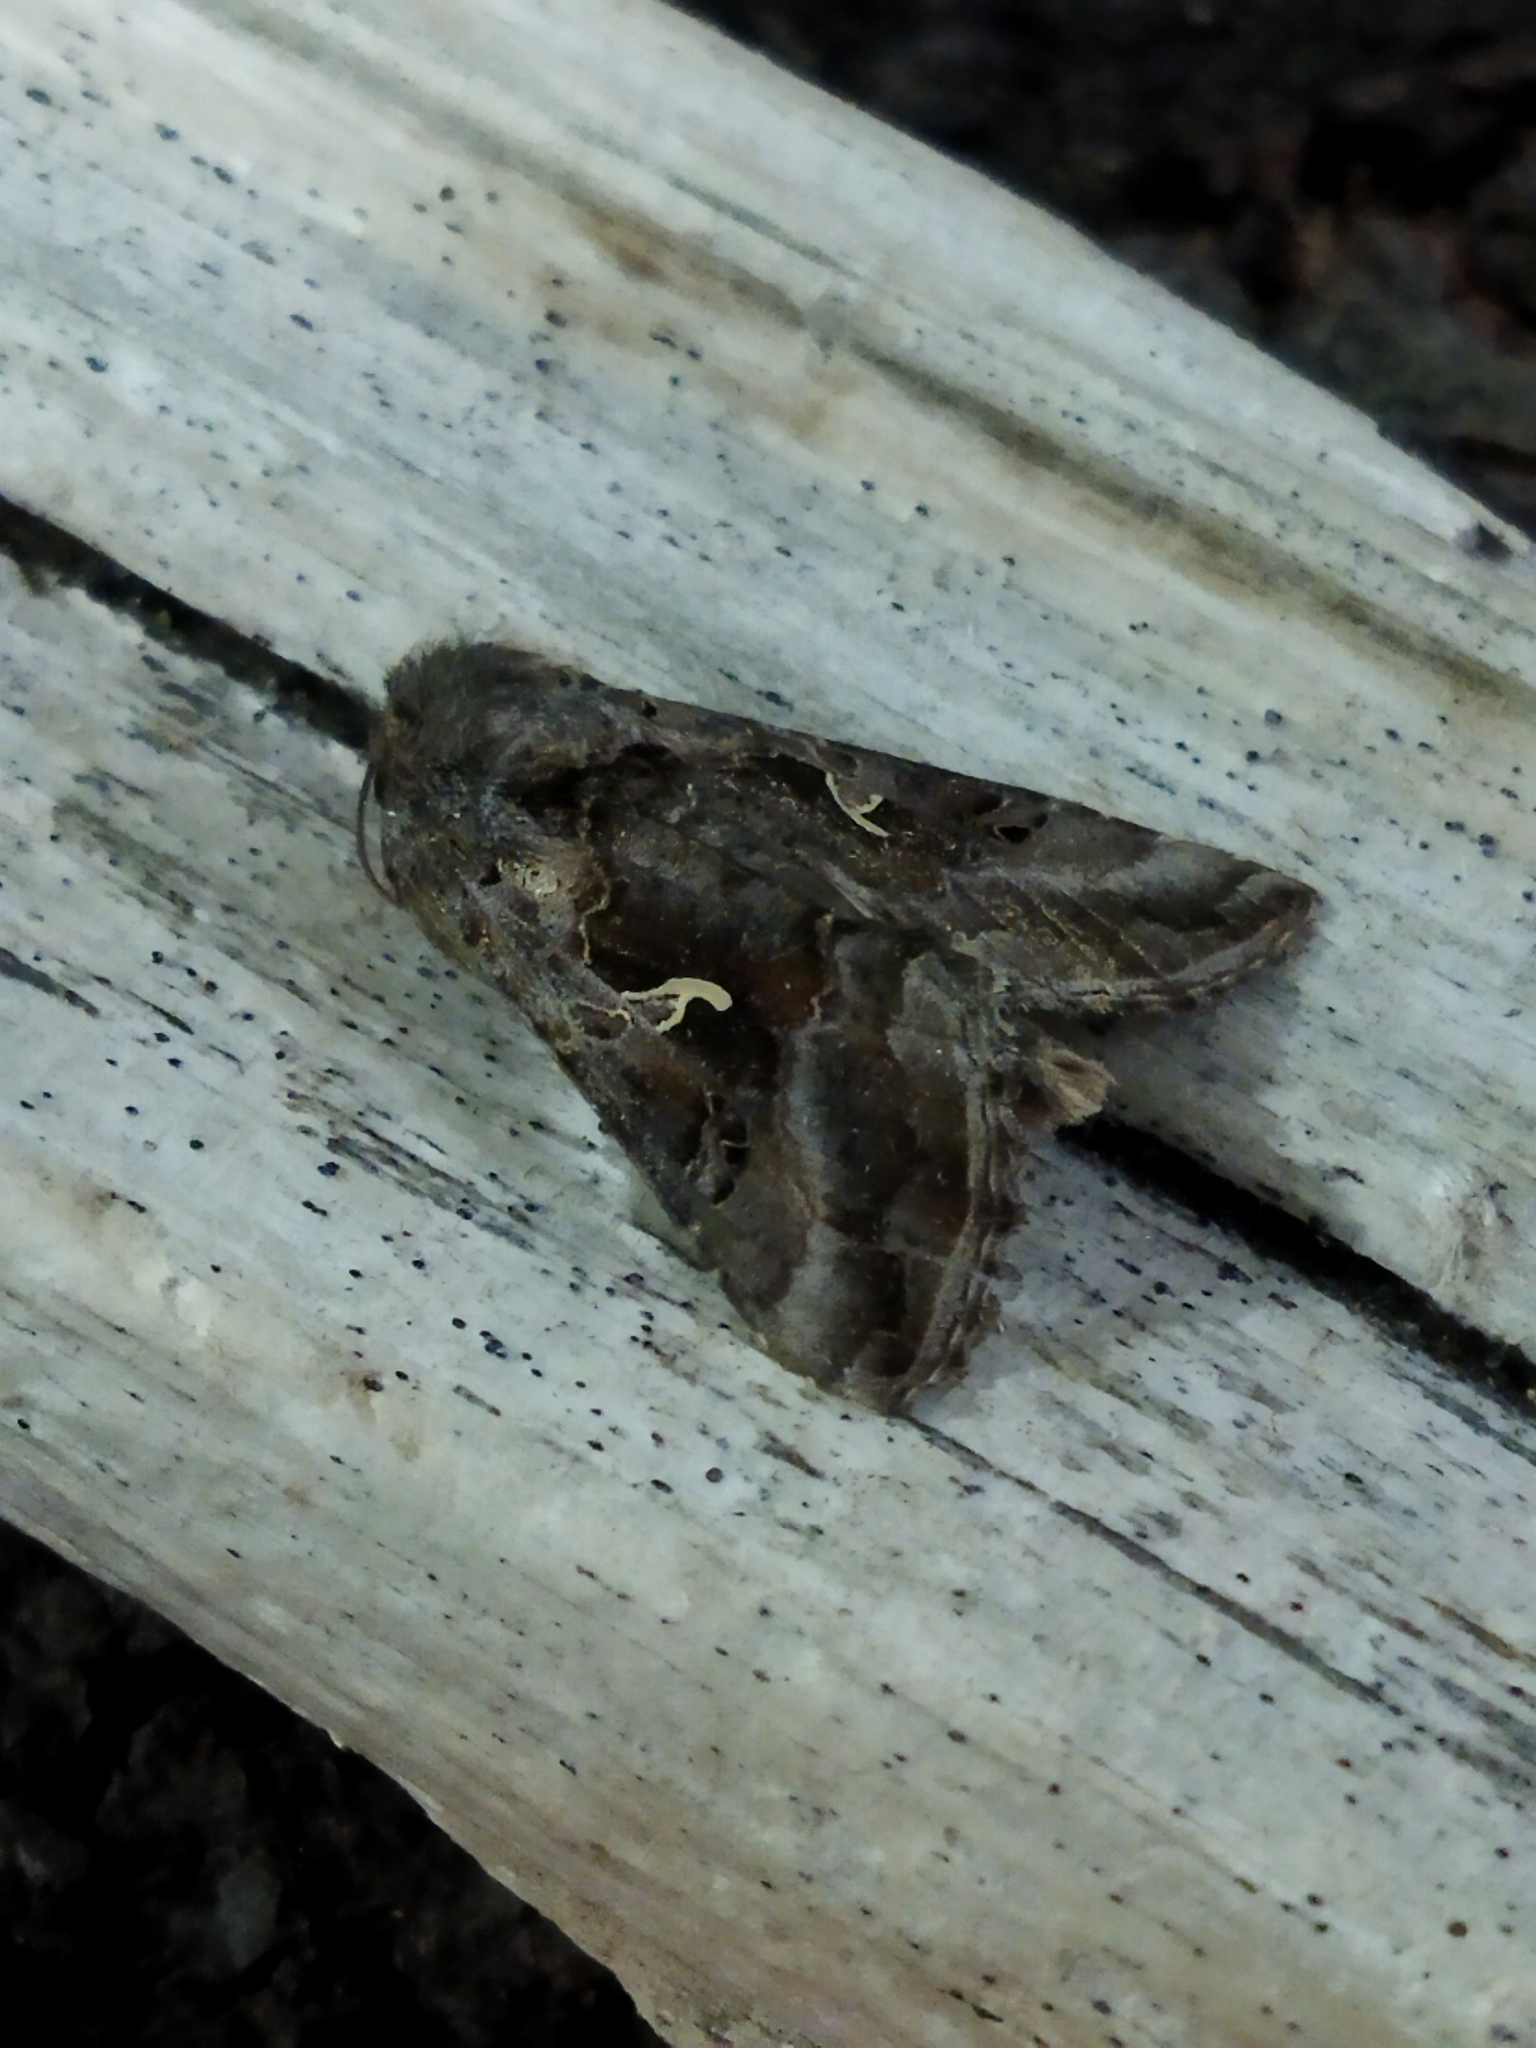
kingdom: Animalia
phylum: Arthropoda
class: Insecta
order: Lepidoptera
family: Noctuidae
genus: Autographa
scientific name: Autographa gamma
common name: Silver y
